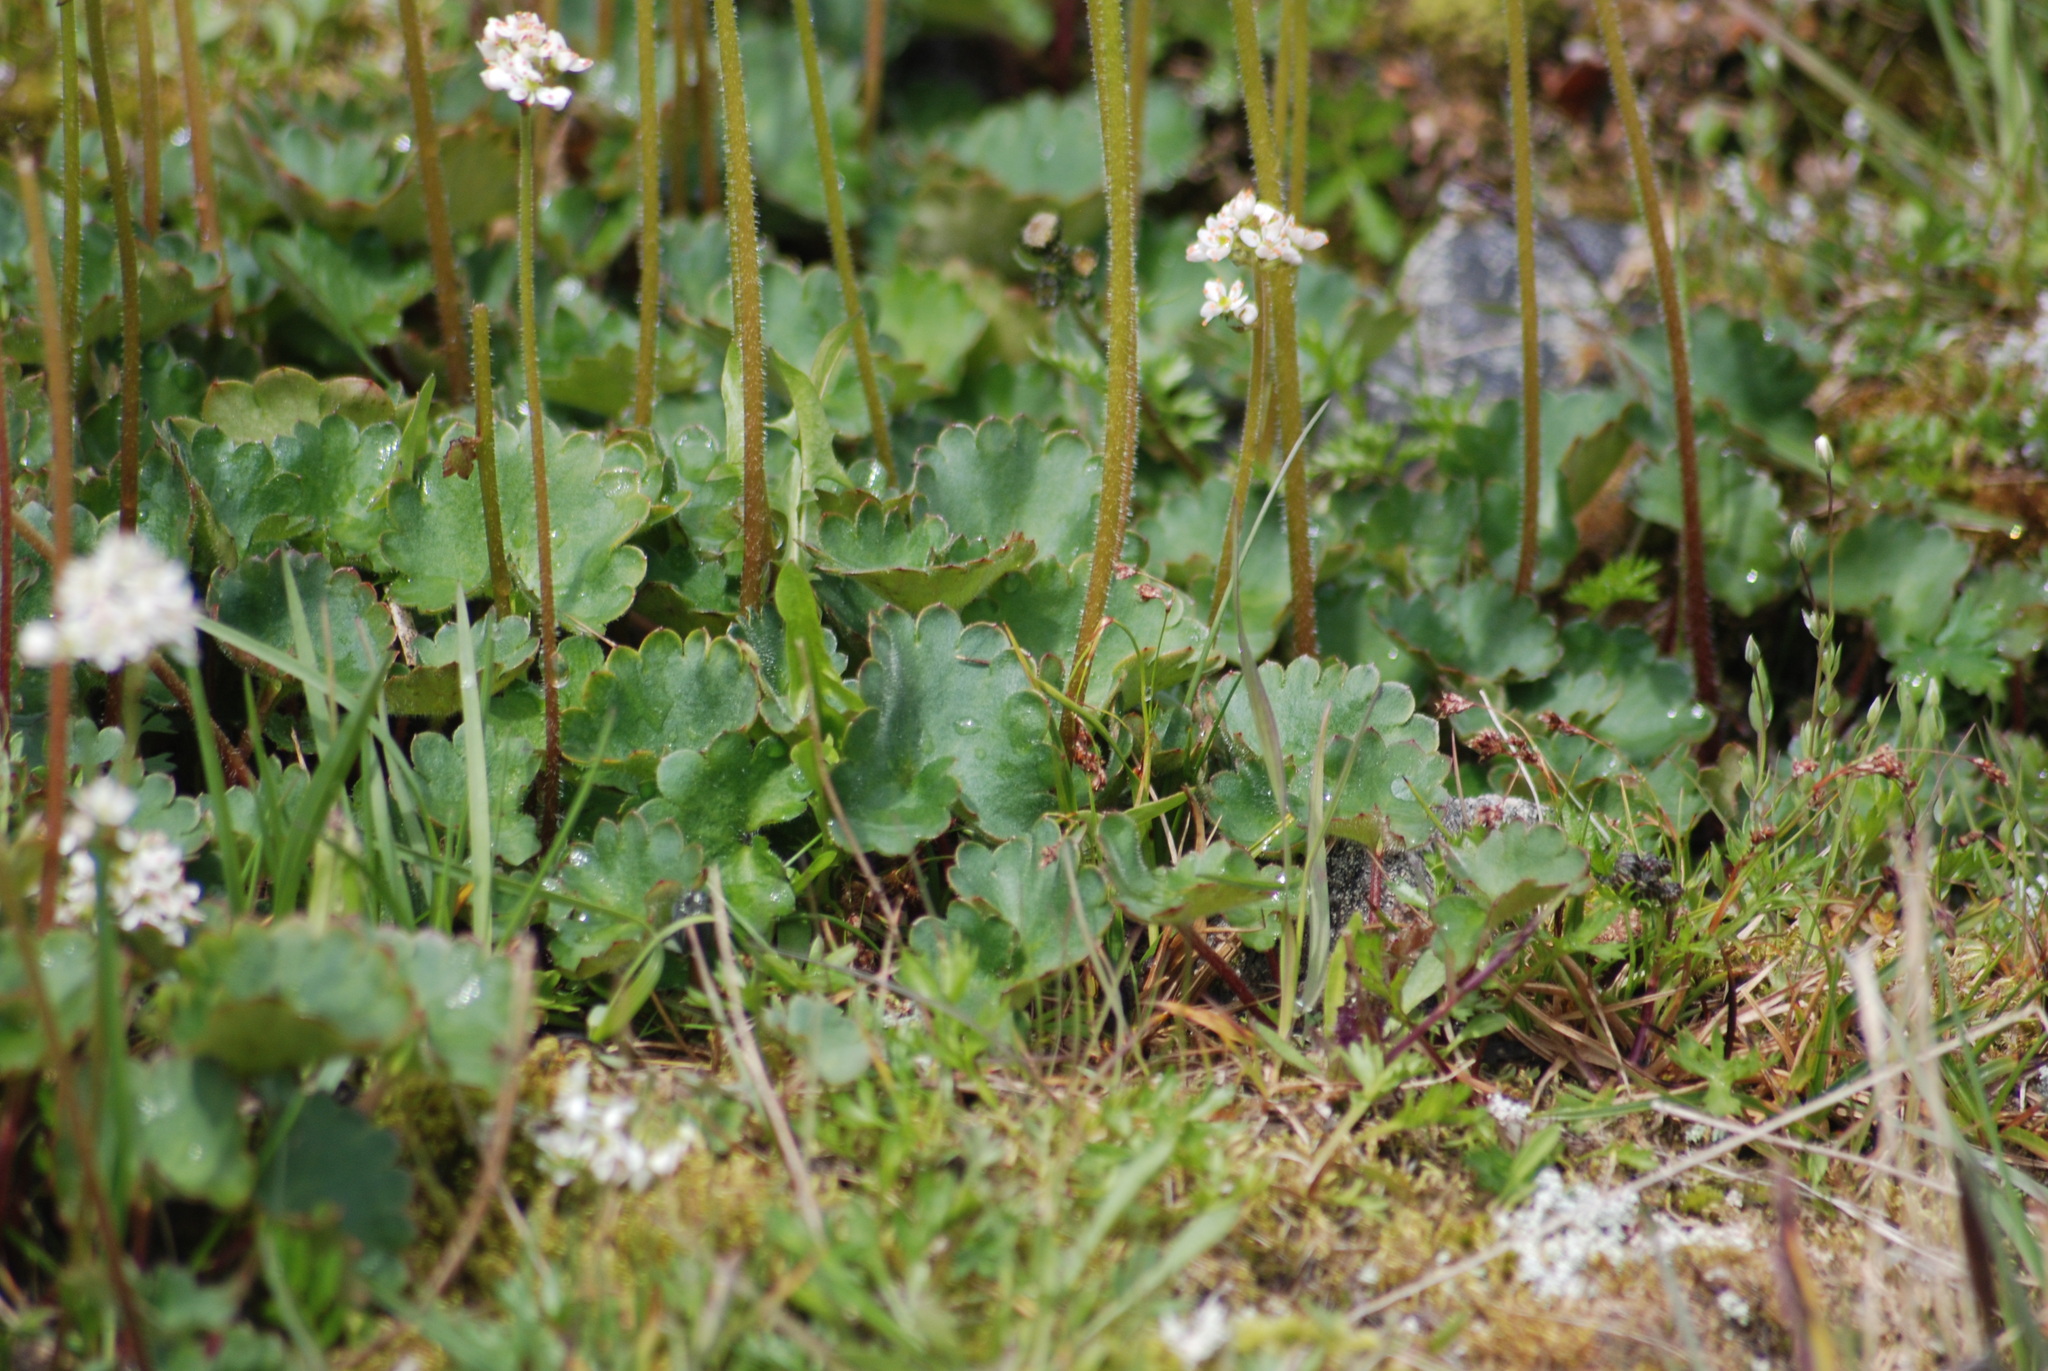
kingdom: Plantae
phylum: Tracheophyta
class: Magnoliopsida
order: Saxifragales
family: Saxifragaceae
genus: Micranthes
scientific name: Micranthes nelsoniana
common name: Nelson's saxifrage
